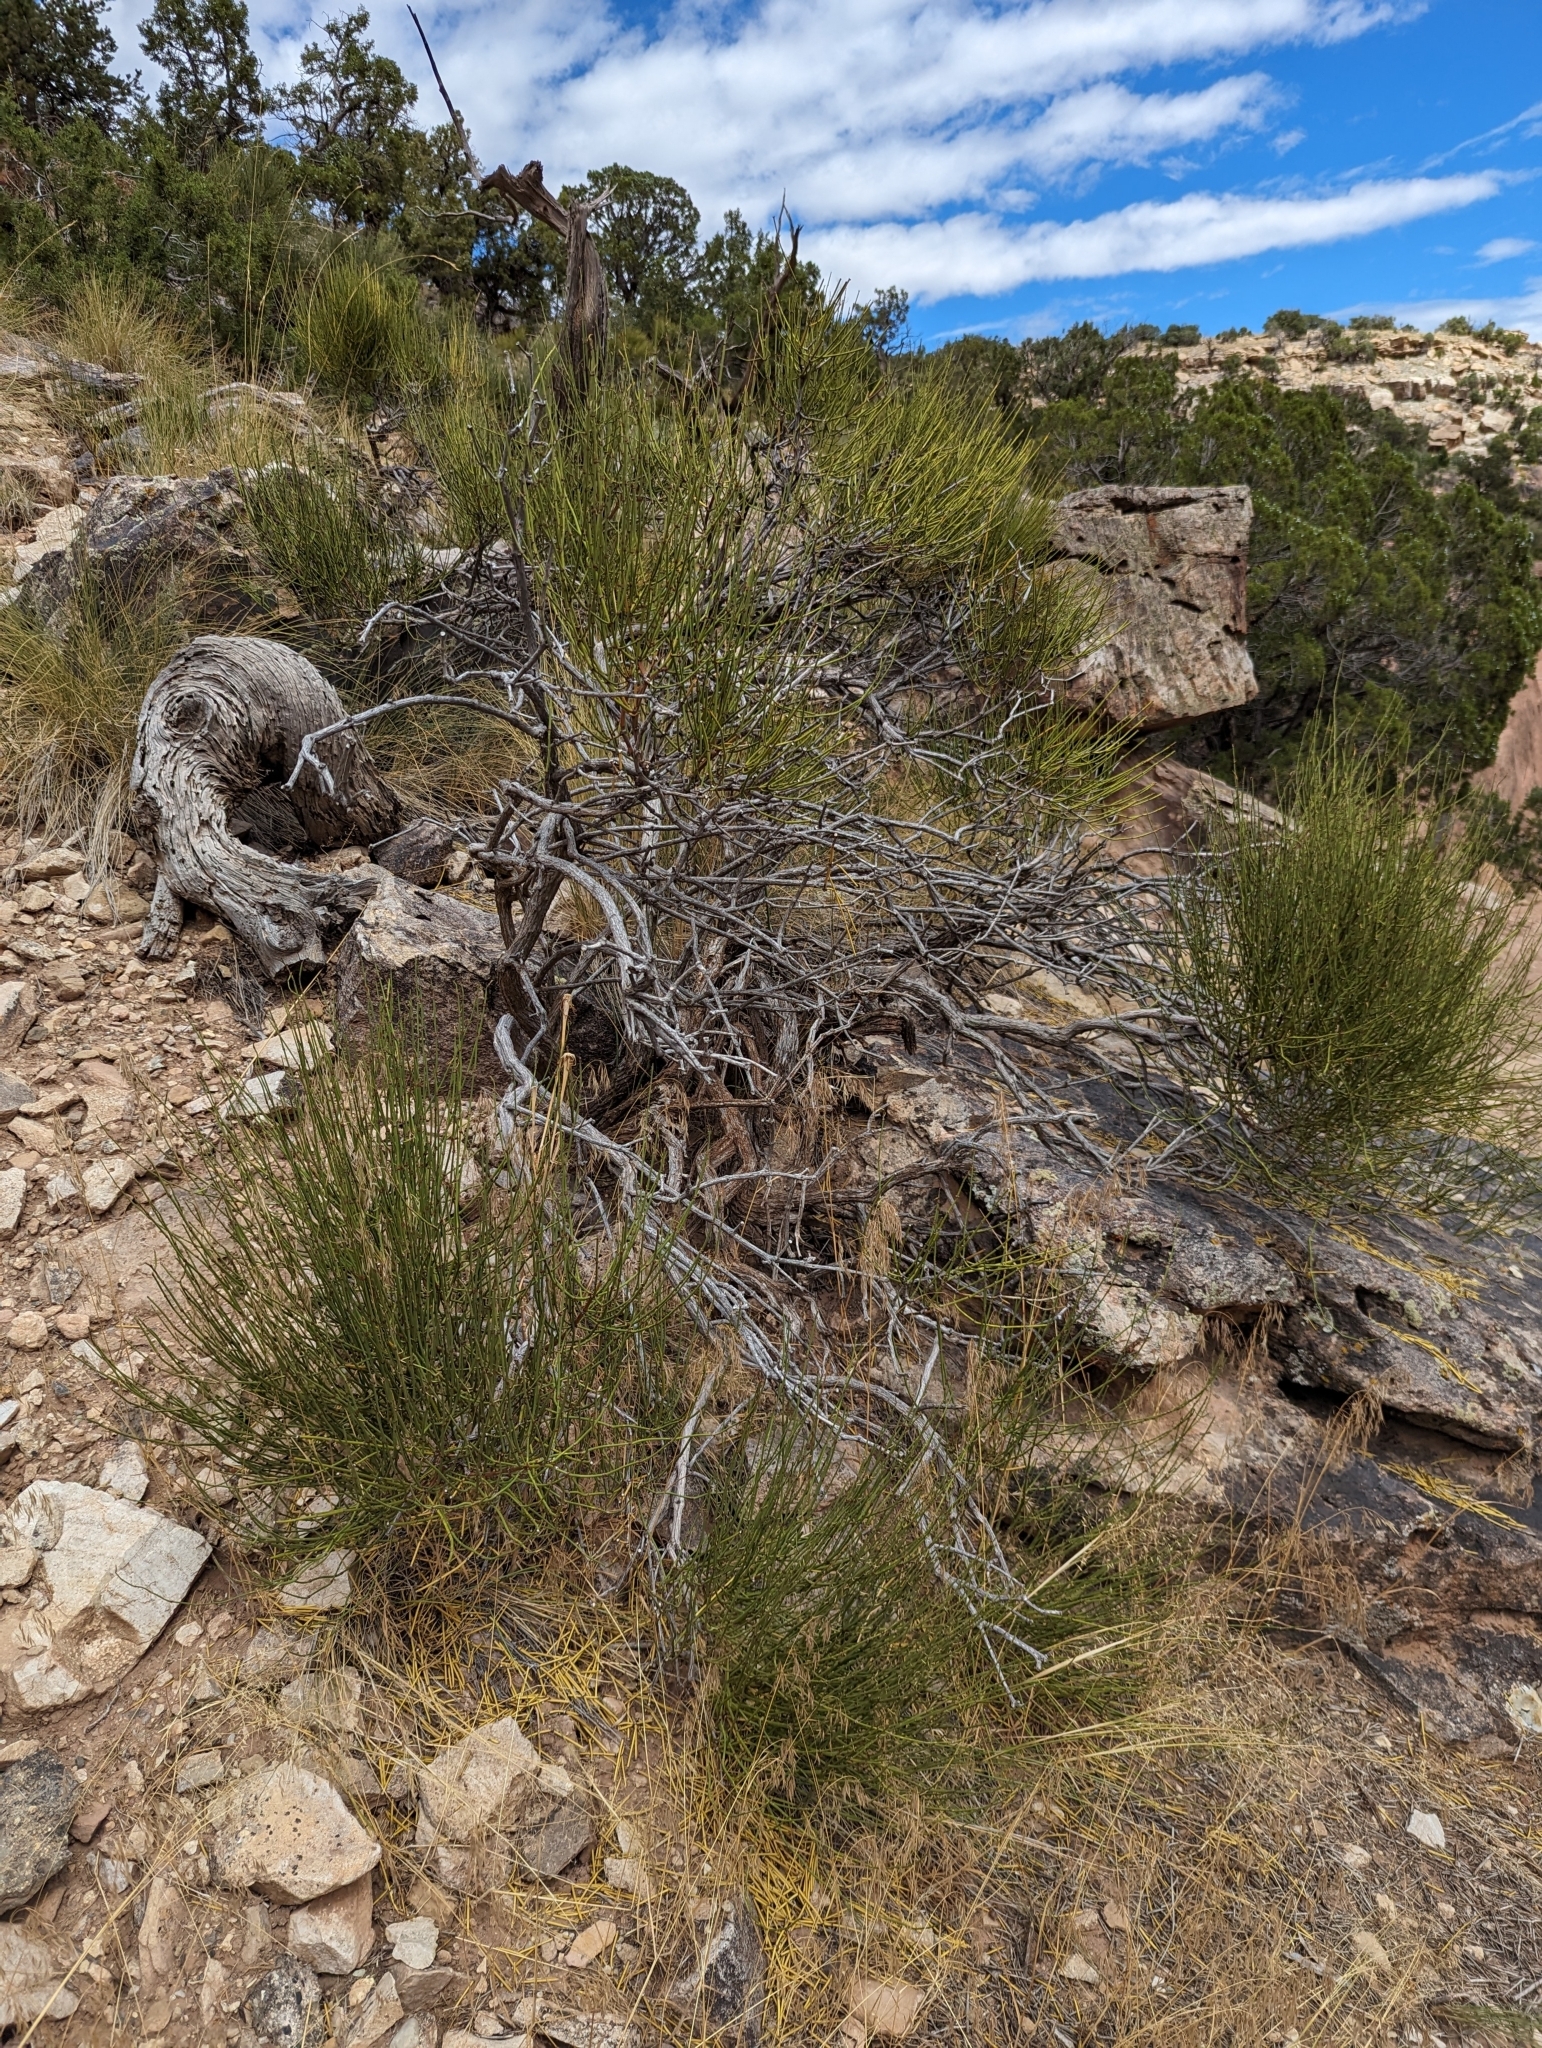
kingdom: Plantae
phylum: Tracheophyta
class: Gnetopsida
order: Ephedrales
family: Ephedraceae
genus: Ephedra
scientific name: Ephedra viridis
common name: Green ephedra
